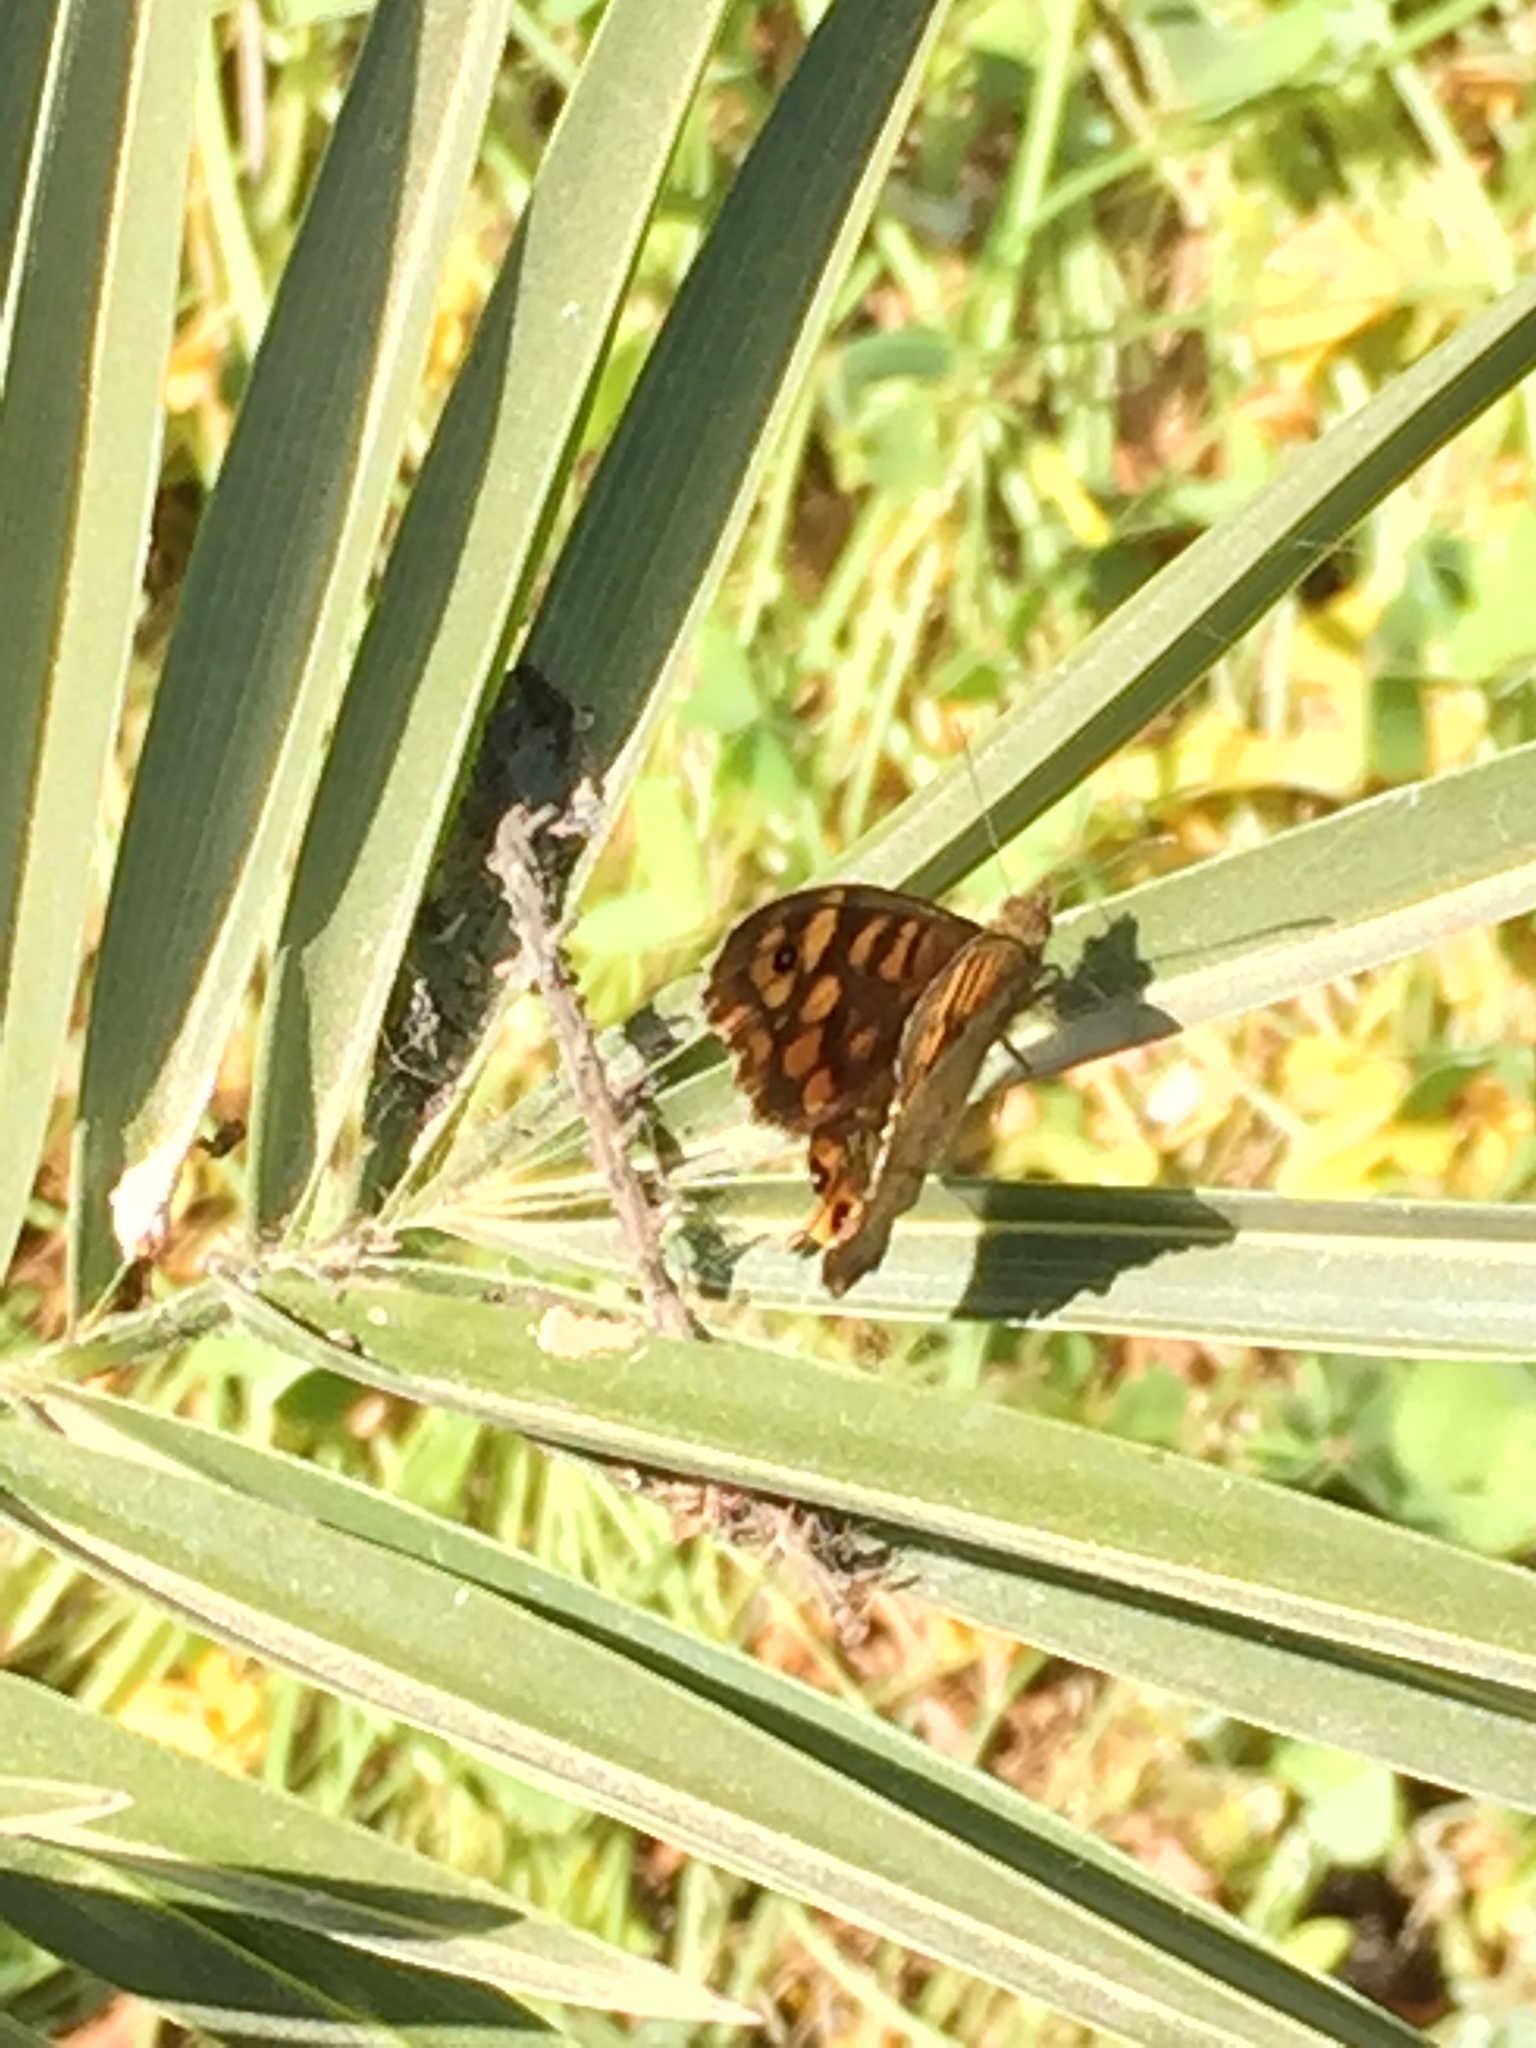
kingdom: Animalia
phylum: Arthropoda
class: Insecta
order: Lepidoptera
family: Nymphalidae
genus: Pararge
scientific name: Pararge aegeria
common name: Speckled wood
